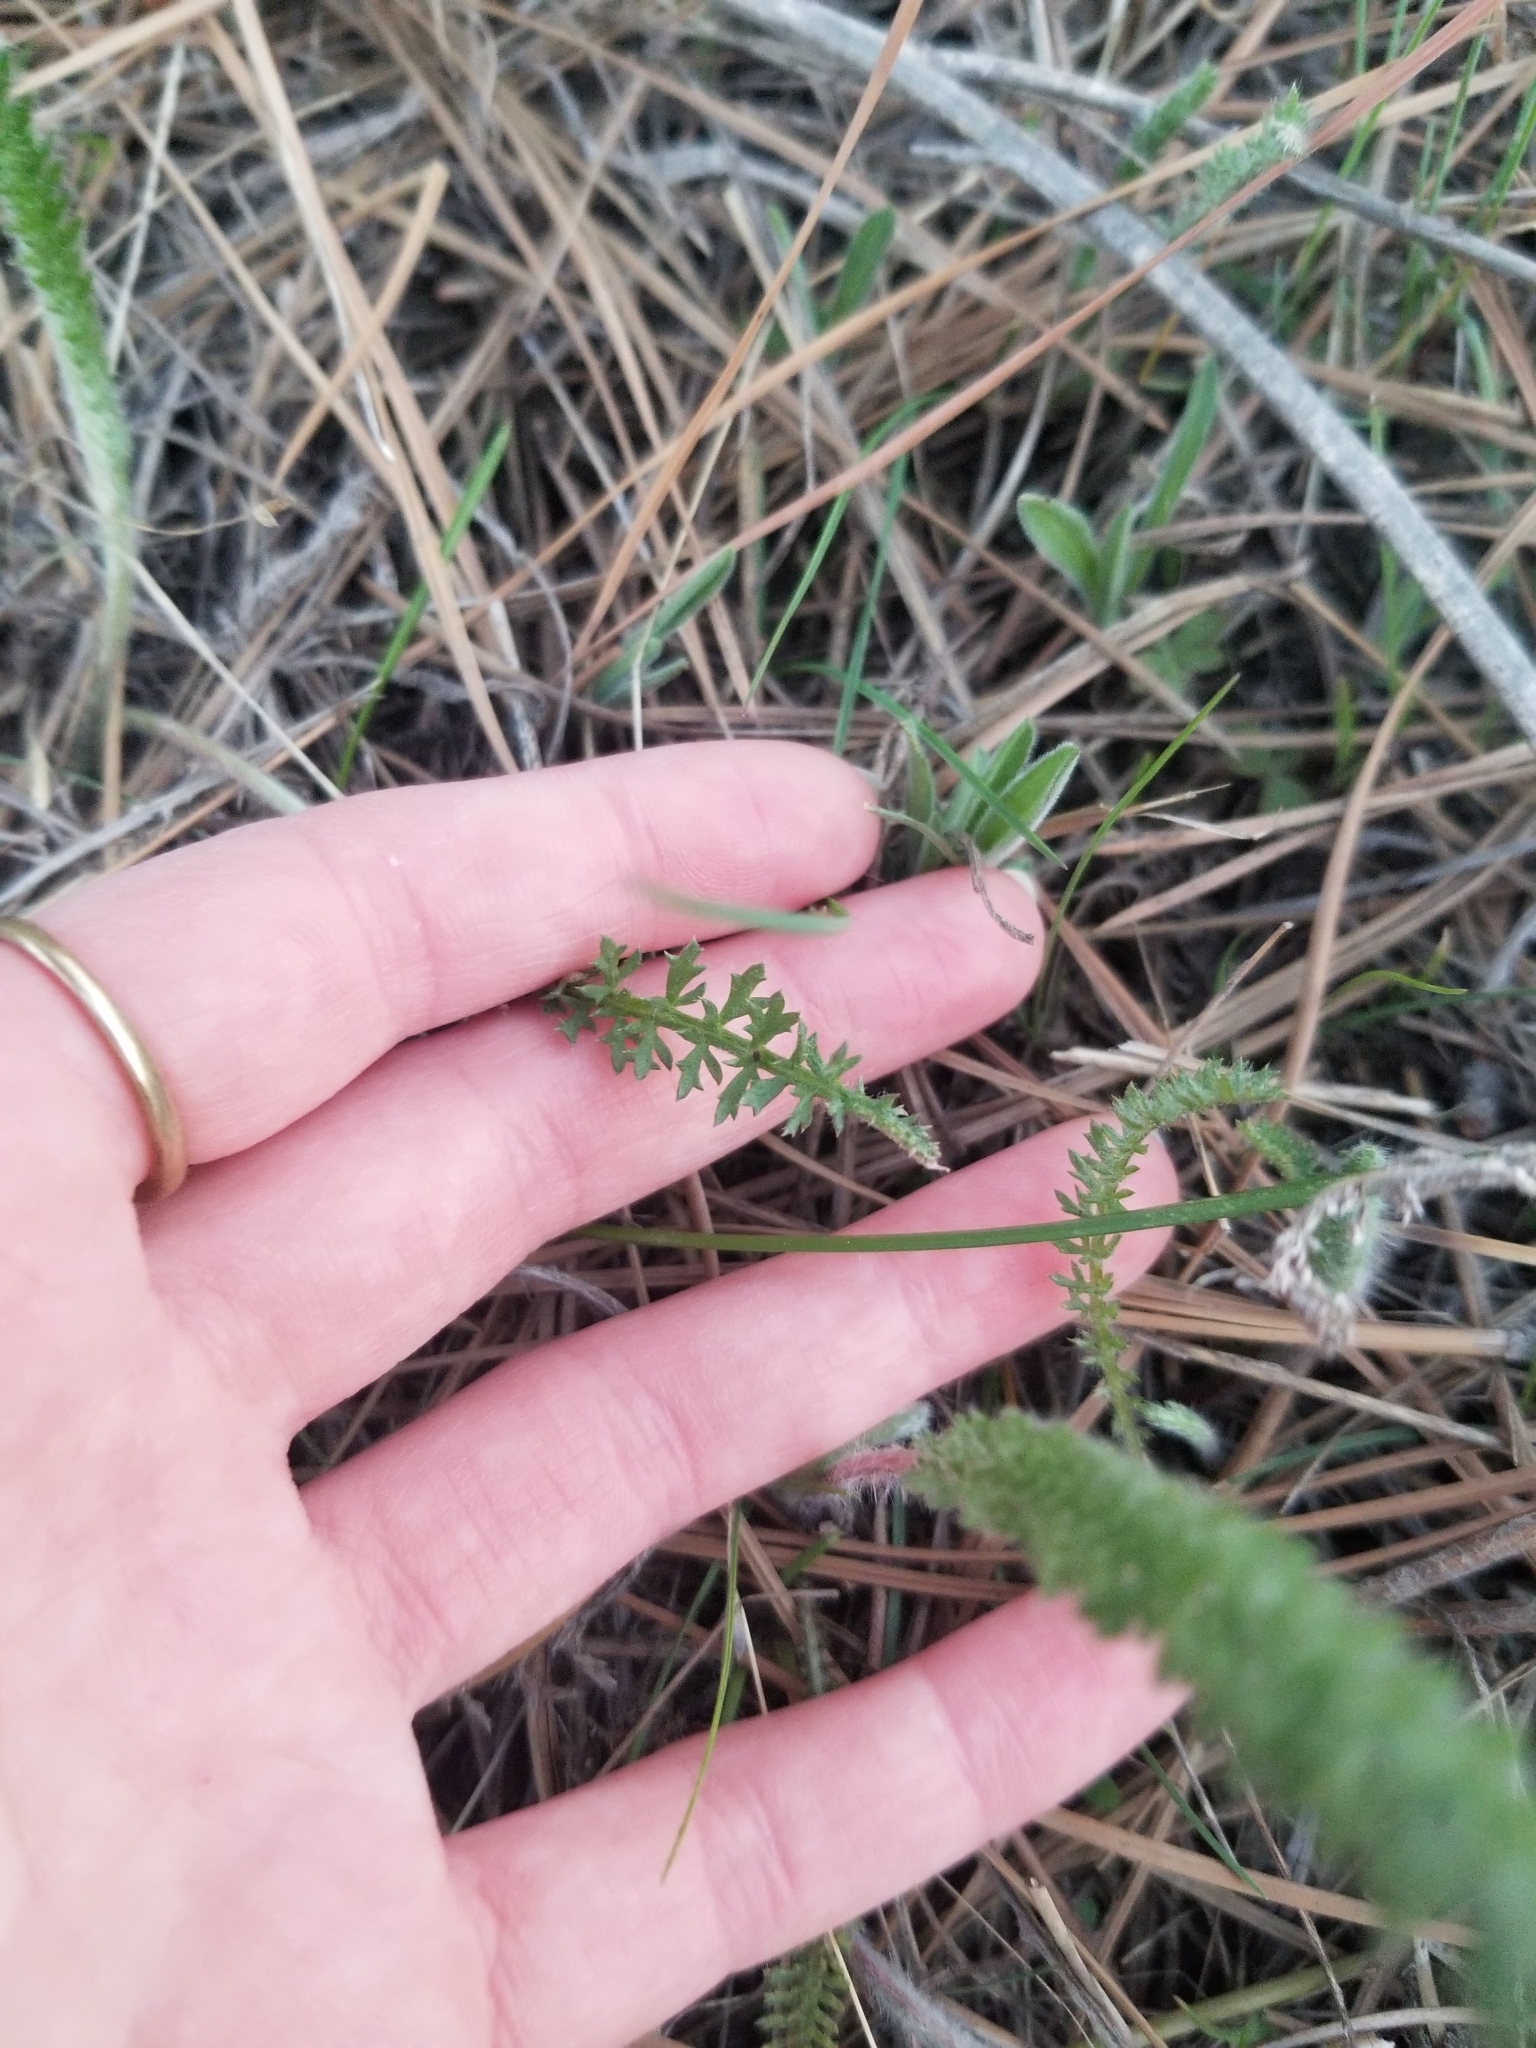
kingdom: Plantae
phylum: Tracheophyta
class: Magnoliopsida
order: Asterales
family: Asteraceae
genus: Achillea
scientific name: Achillea millefolium
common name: Yarrow
